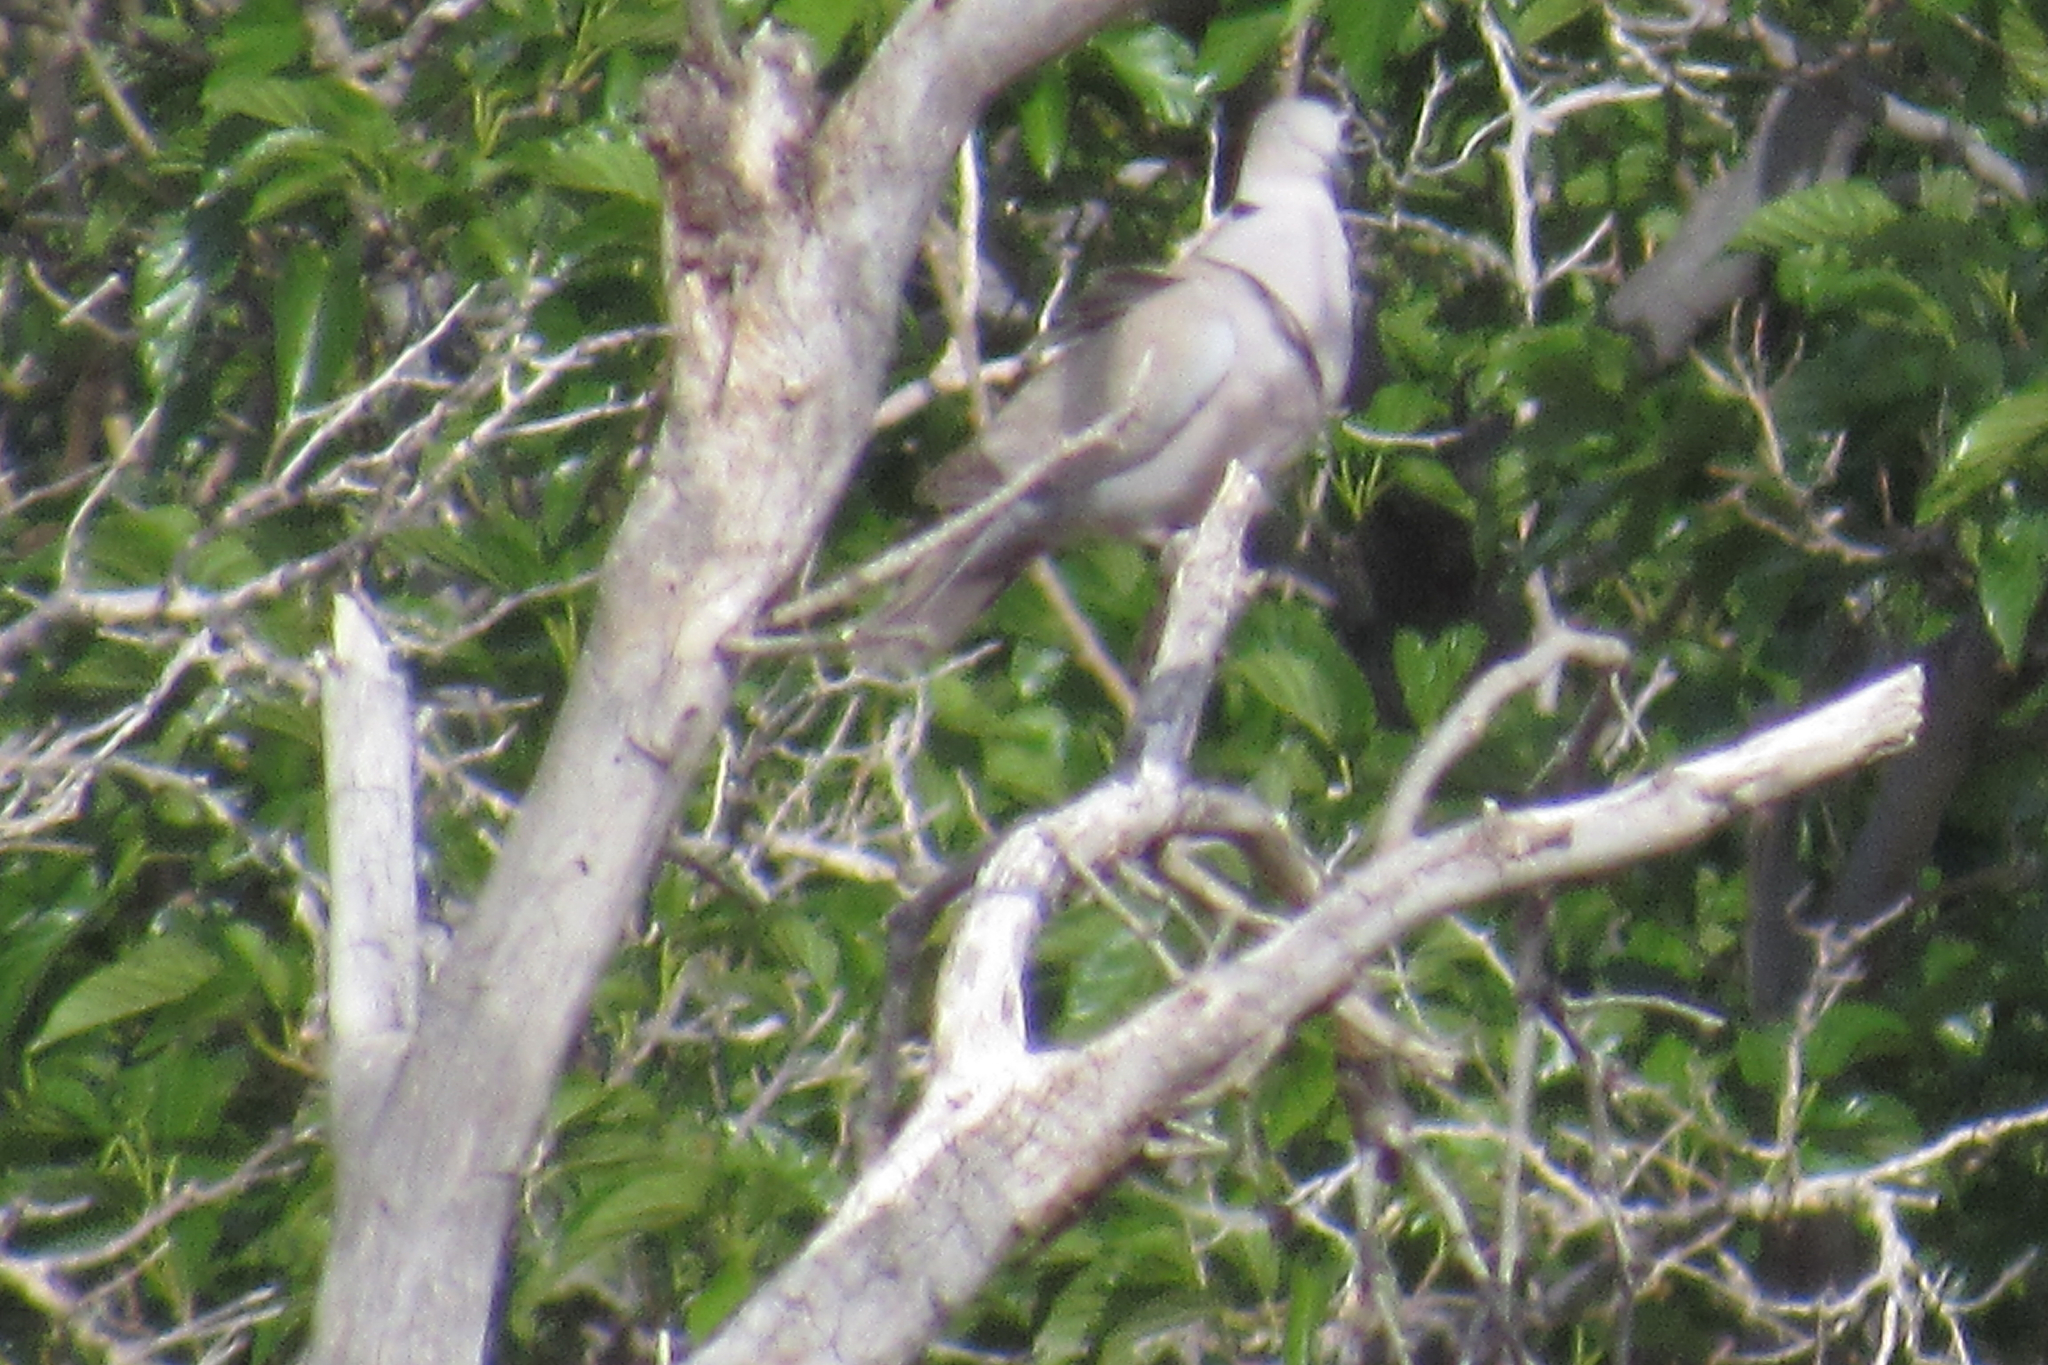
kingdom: Animalia
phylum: Chordata
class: Aves
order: Columbiformes
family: Columbidae
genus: Streptopelia
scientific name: Streptopelia decaocto
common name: Eurasian collared dove
